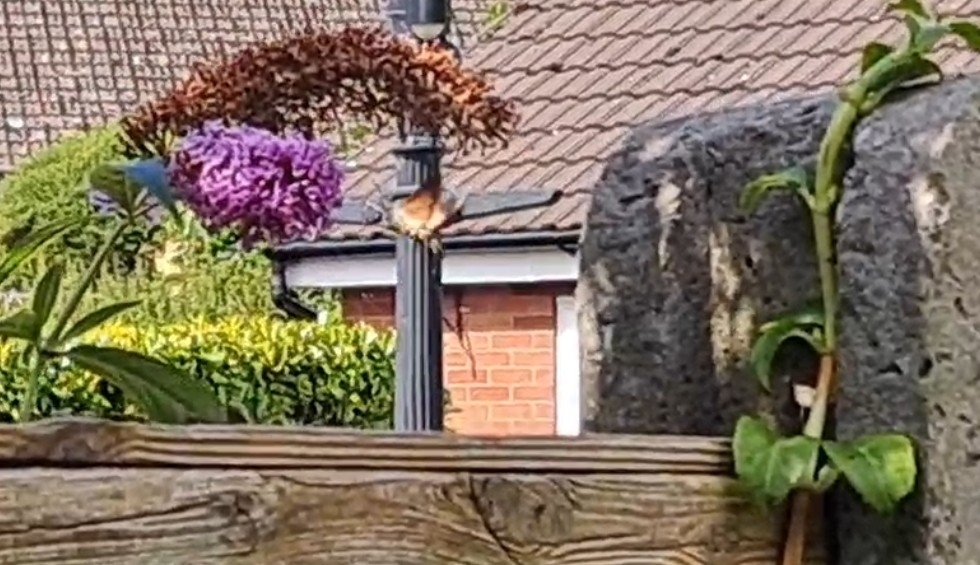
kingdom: Animalia
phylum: Arthropoda
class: Insecta
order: Lepidoptera
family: Sphingidae
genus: Macroglossum
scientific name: Macroglossum stellatarum
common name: Humming-bird hawk-moth
